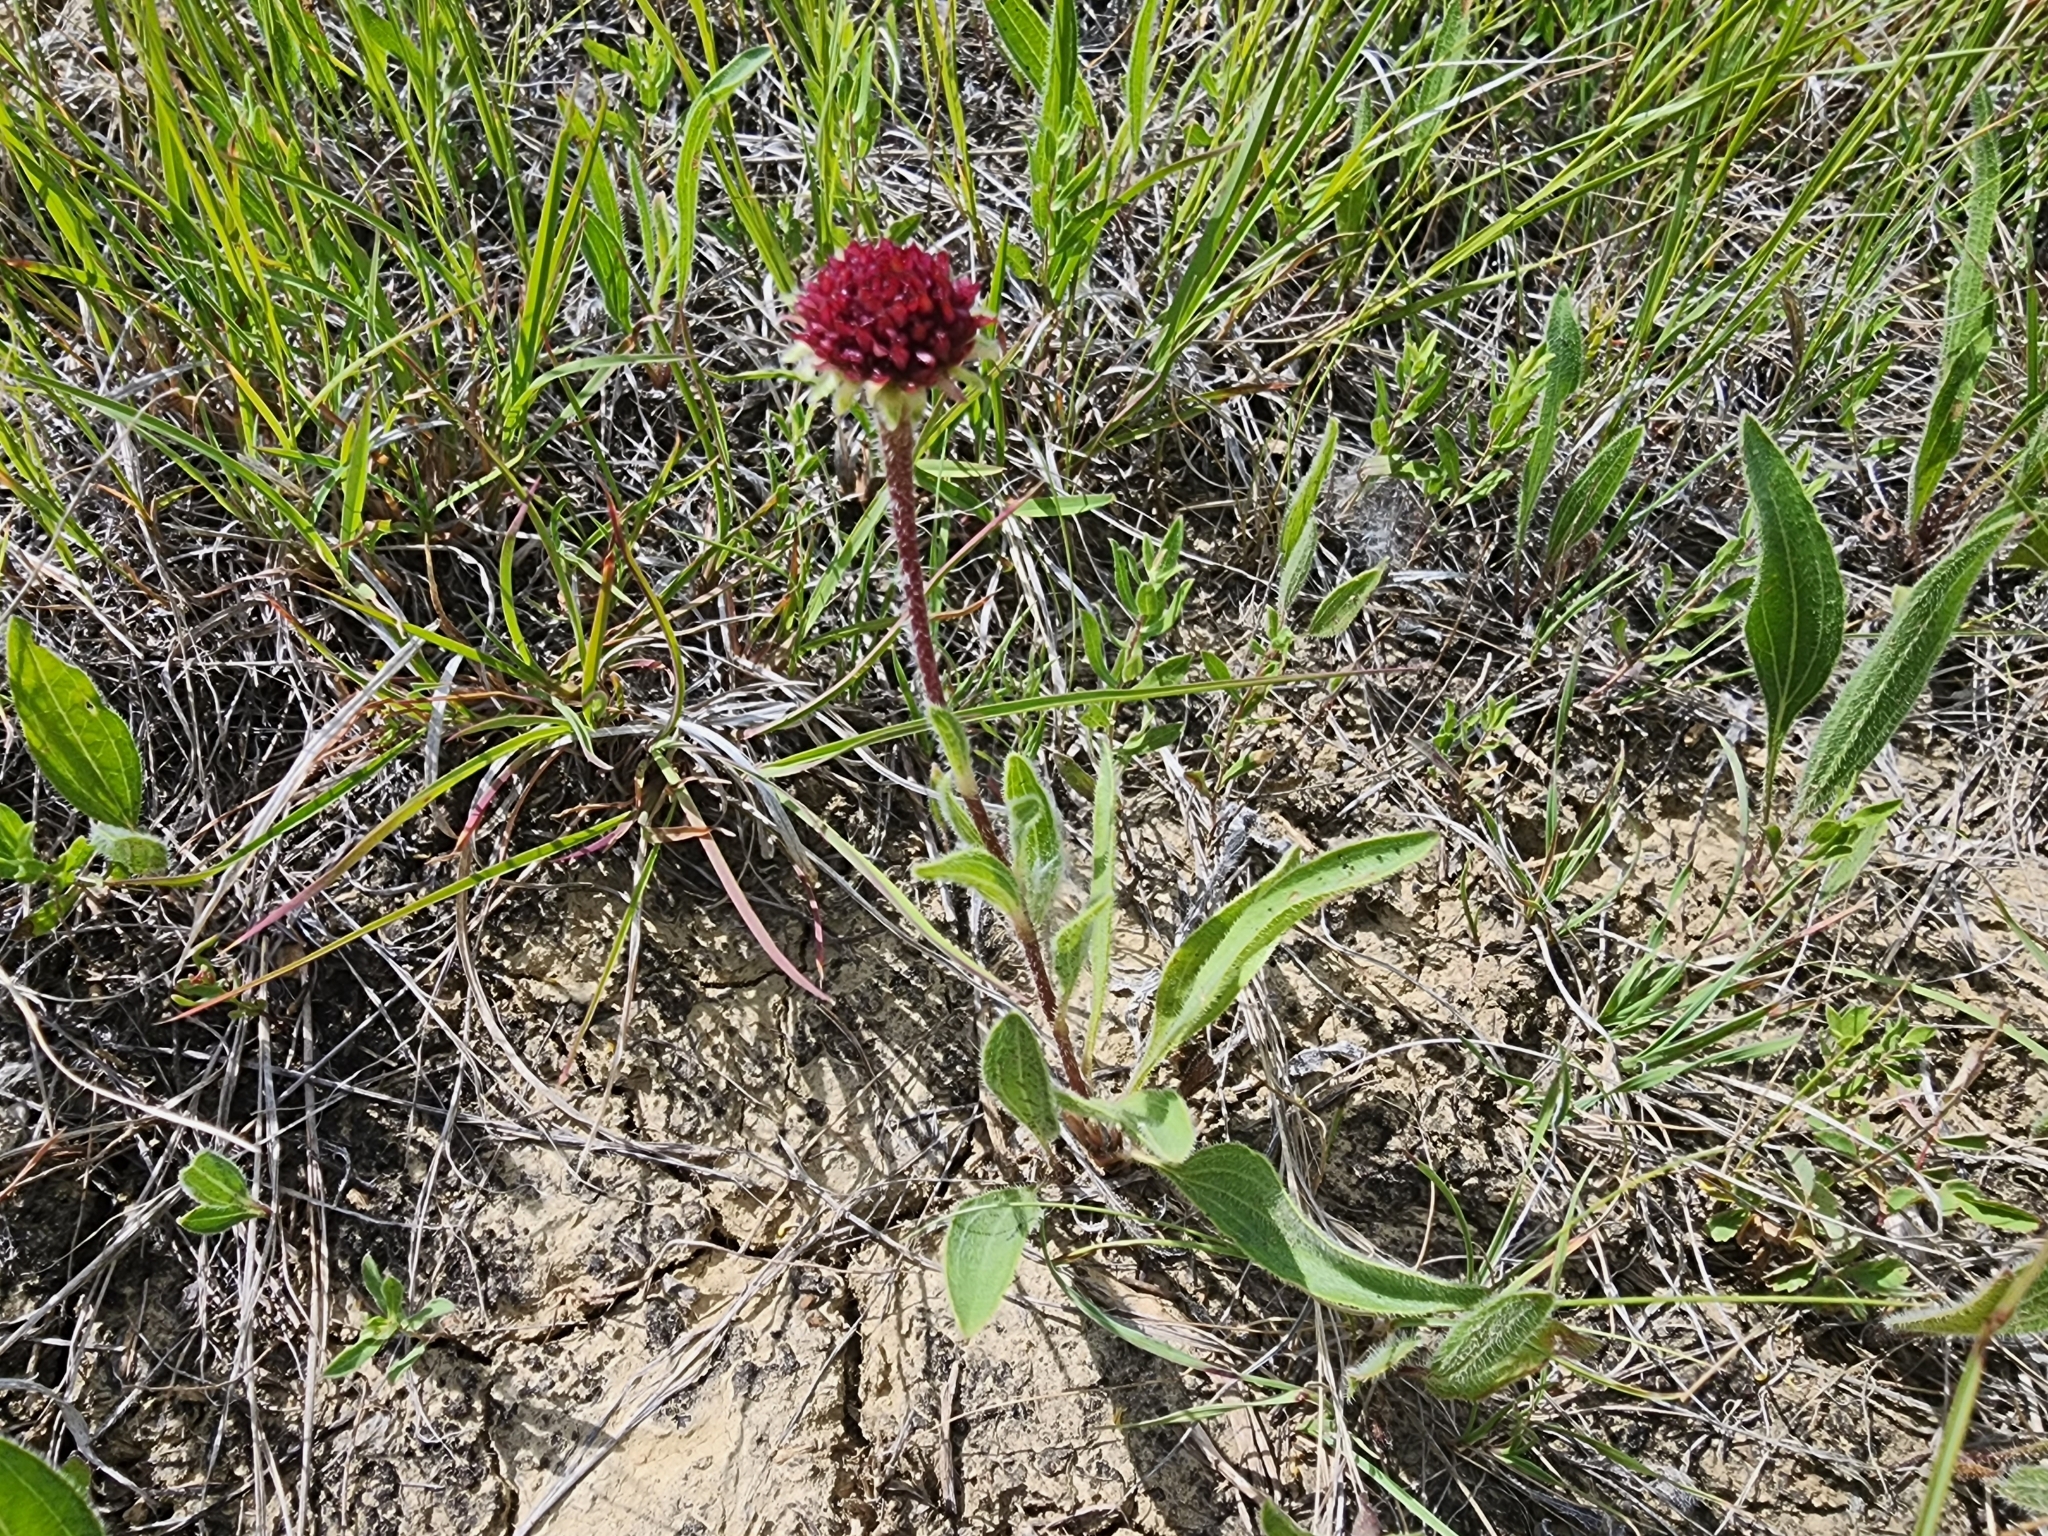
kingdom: Plantae
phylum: Tracheophyta
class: Magnoliopsida
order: Asterales
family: Asteraceae
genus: Echinacea
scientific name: Echinacea angustifolia
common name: Black-sampson echinacea
